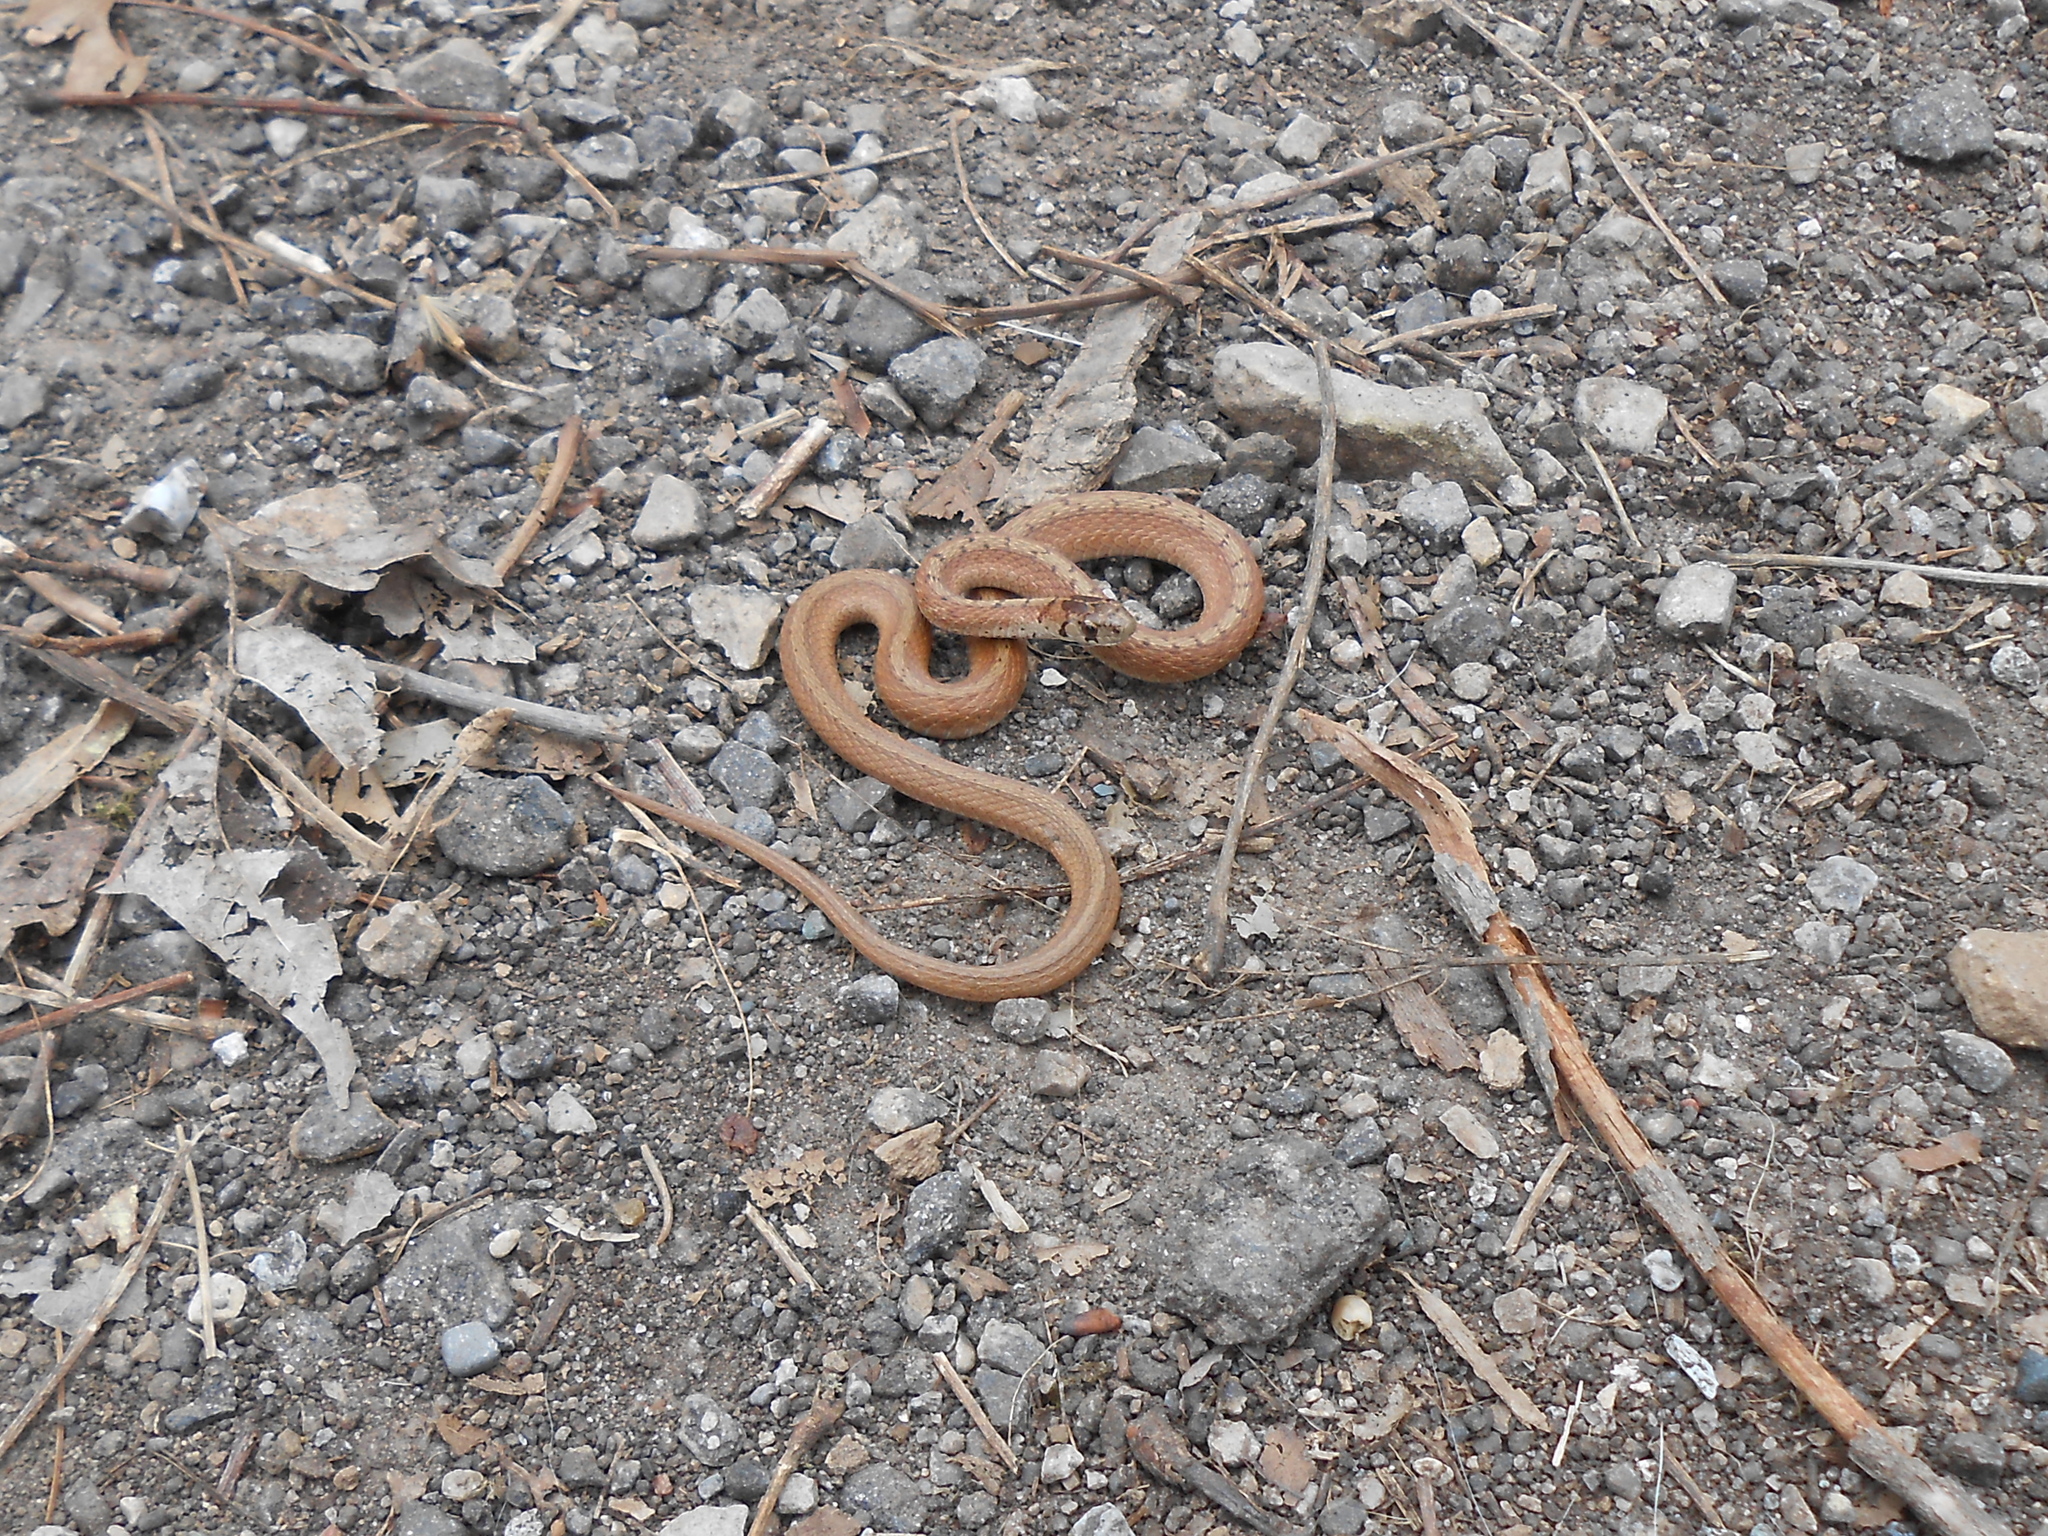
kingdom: Animalia
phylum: Chordata
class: Squamata
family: Colubridae
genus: Storeria
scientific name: Storeria dekayi
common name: (dekay’s) brown snake
